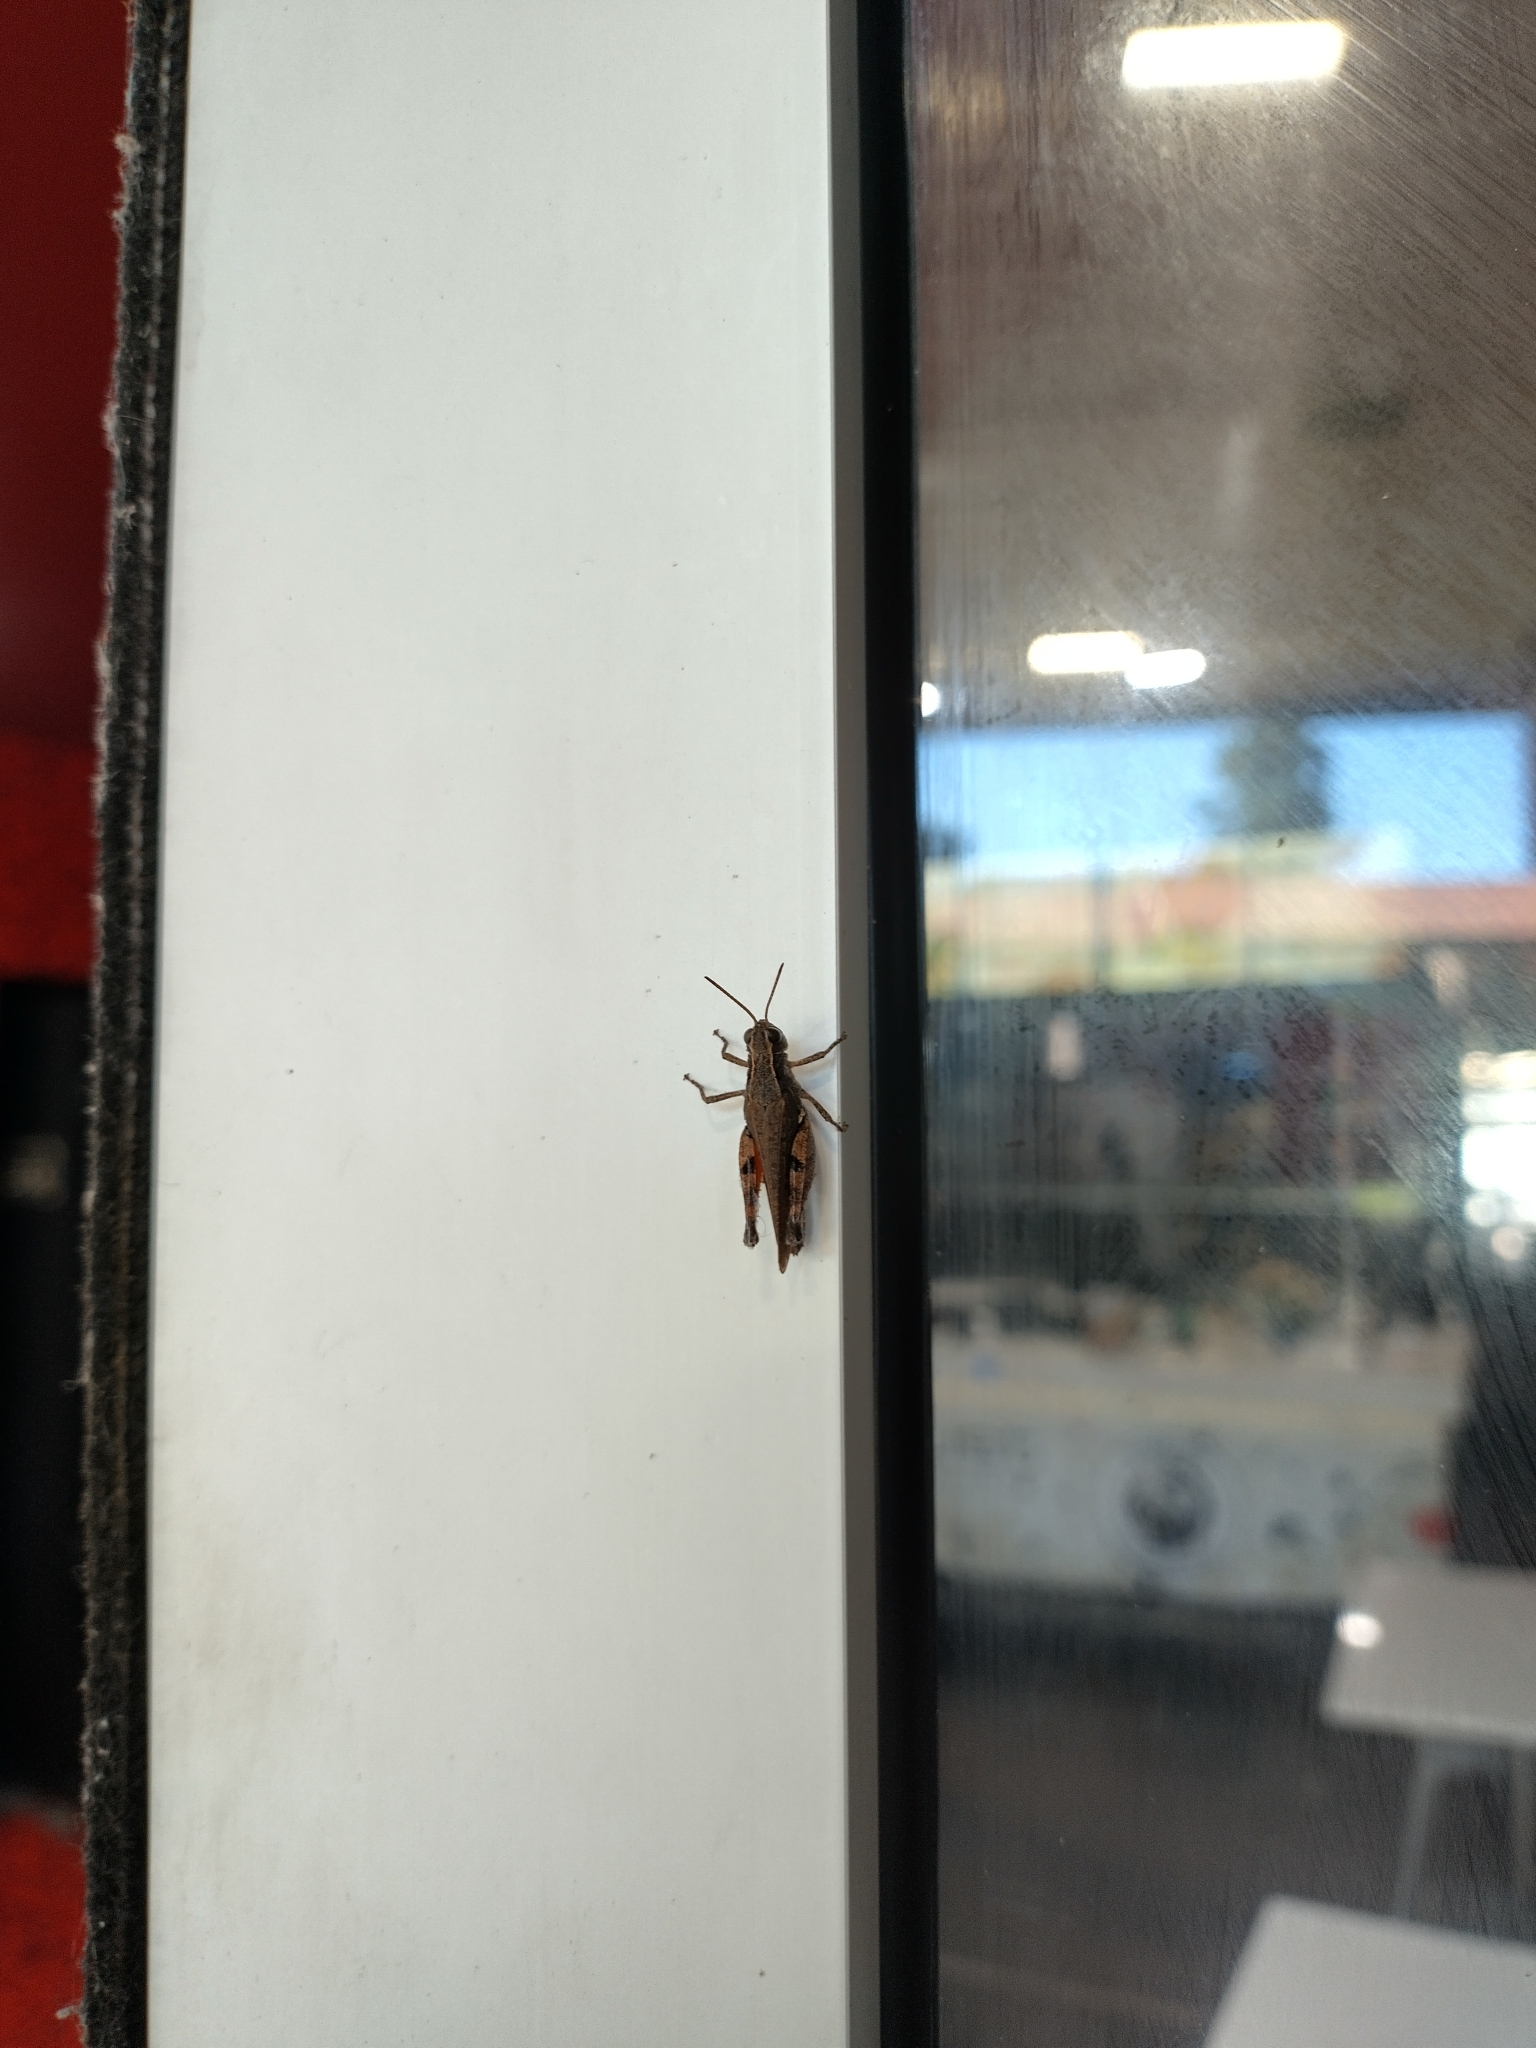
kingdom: Animalia
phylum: Arthropoda
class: Insecta
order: Orthoptera
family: Acrididae
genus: Phaulacridium
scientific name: Phaulacridium vittatum
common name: Wingless grasshopper
